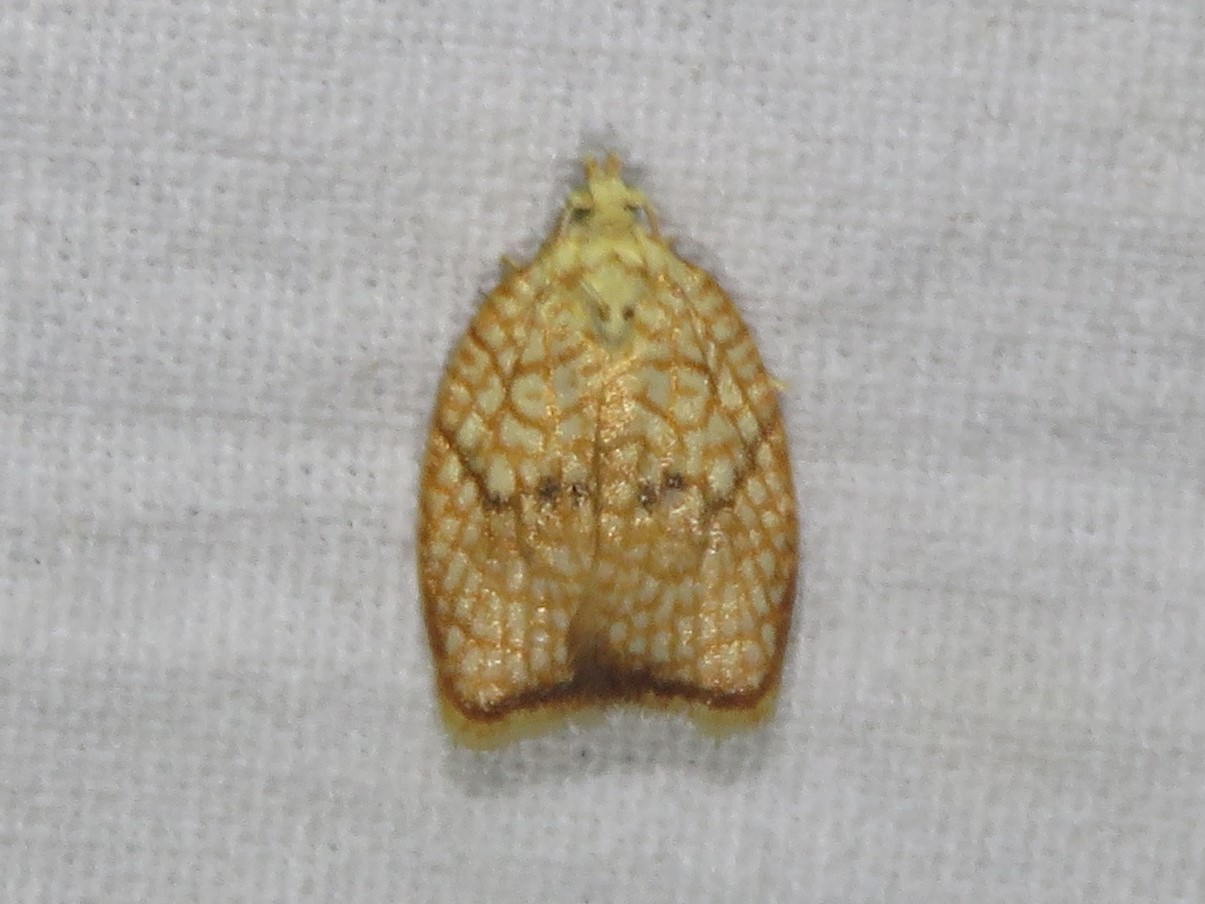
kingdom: Animalia
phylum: Arthropoda
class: Insecta
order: Lepidoptera
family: Tortricidae
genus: Acleris
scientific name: Acleris forsskaleana
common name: Maple button
